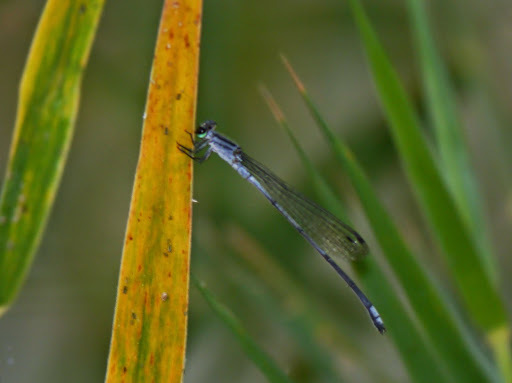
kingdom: Animalia
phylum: Arthropoda
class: Insecta
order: Odonata
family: Coenagrionidae
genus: Pseudagrion
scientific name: Pseudagrion kersteni
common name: Powder-faced sprite
